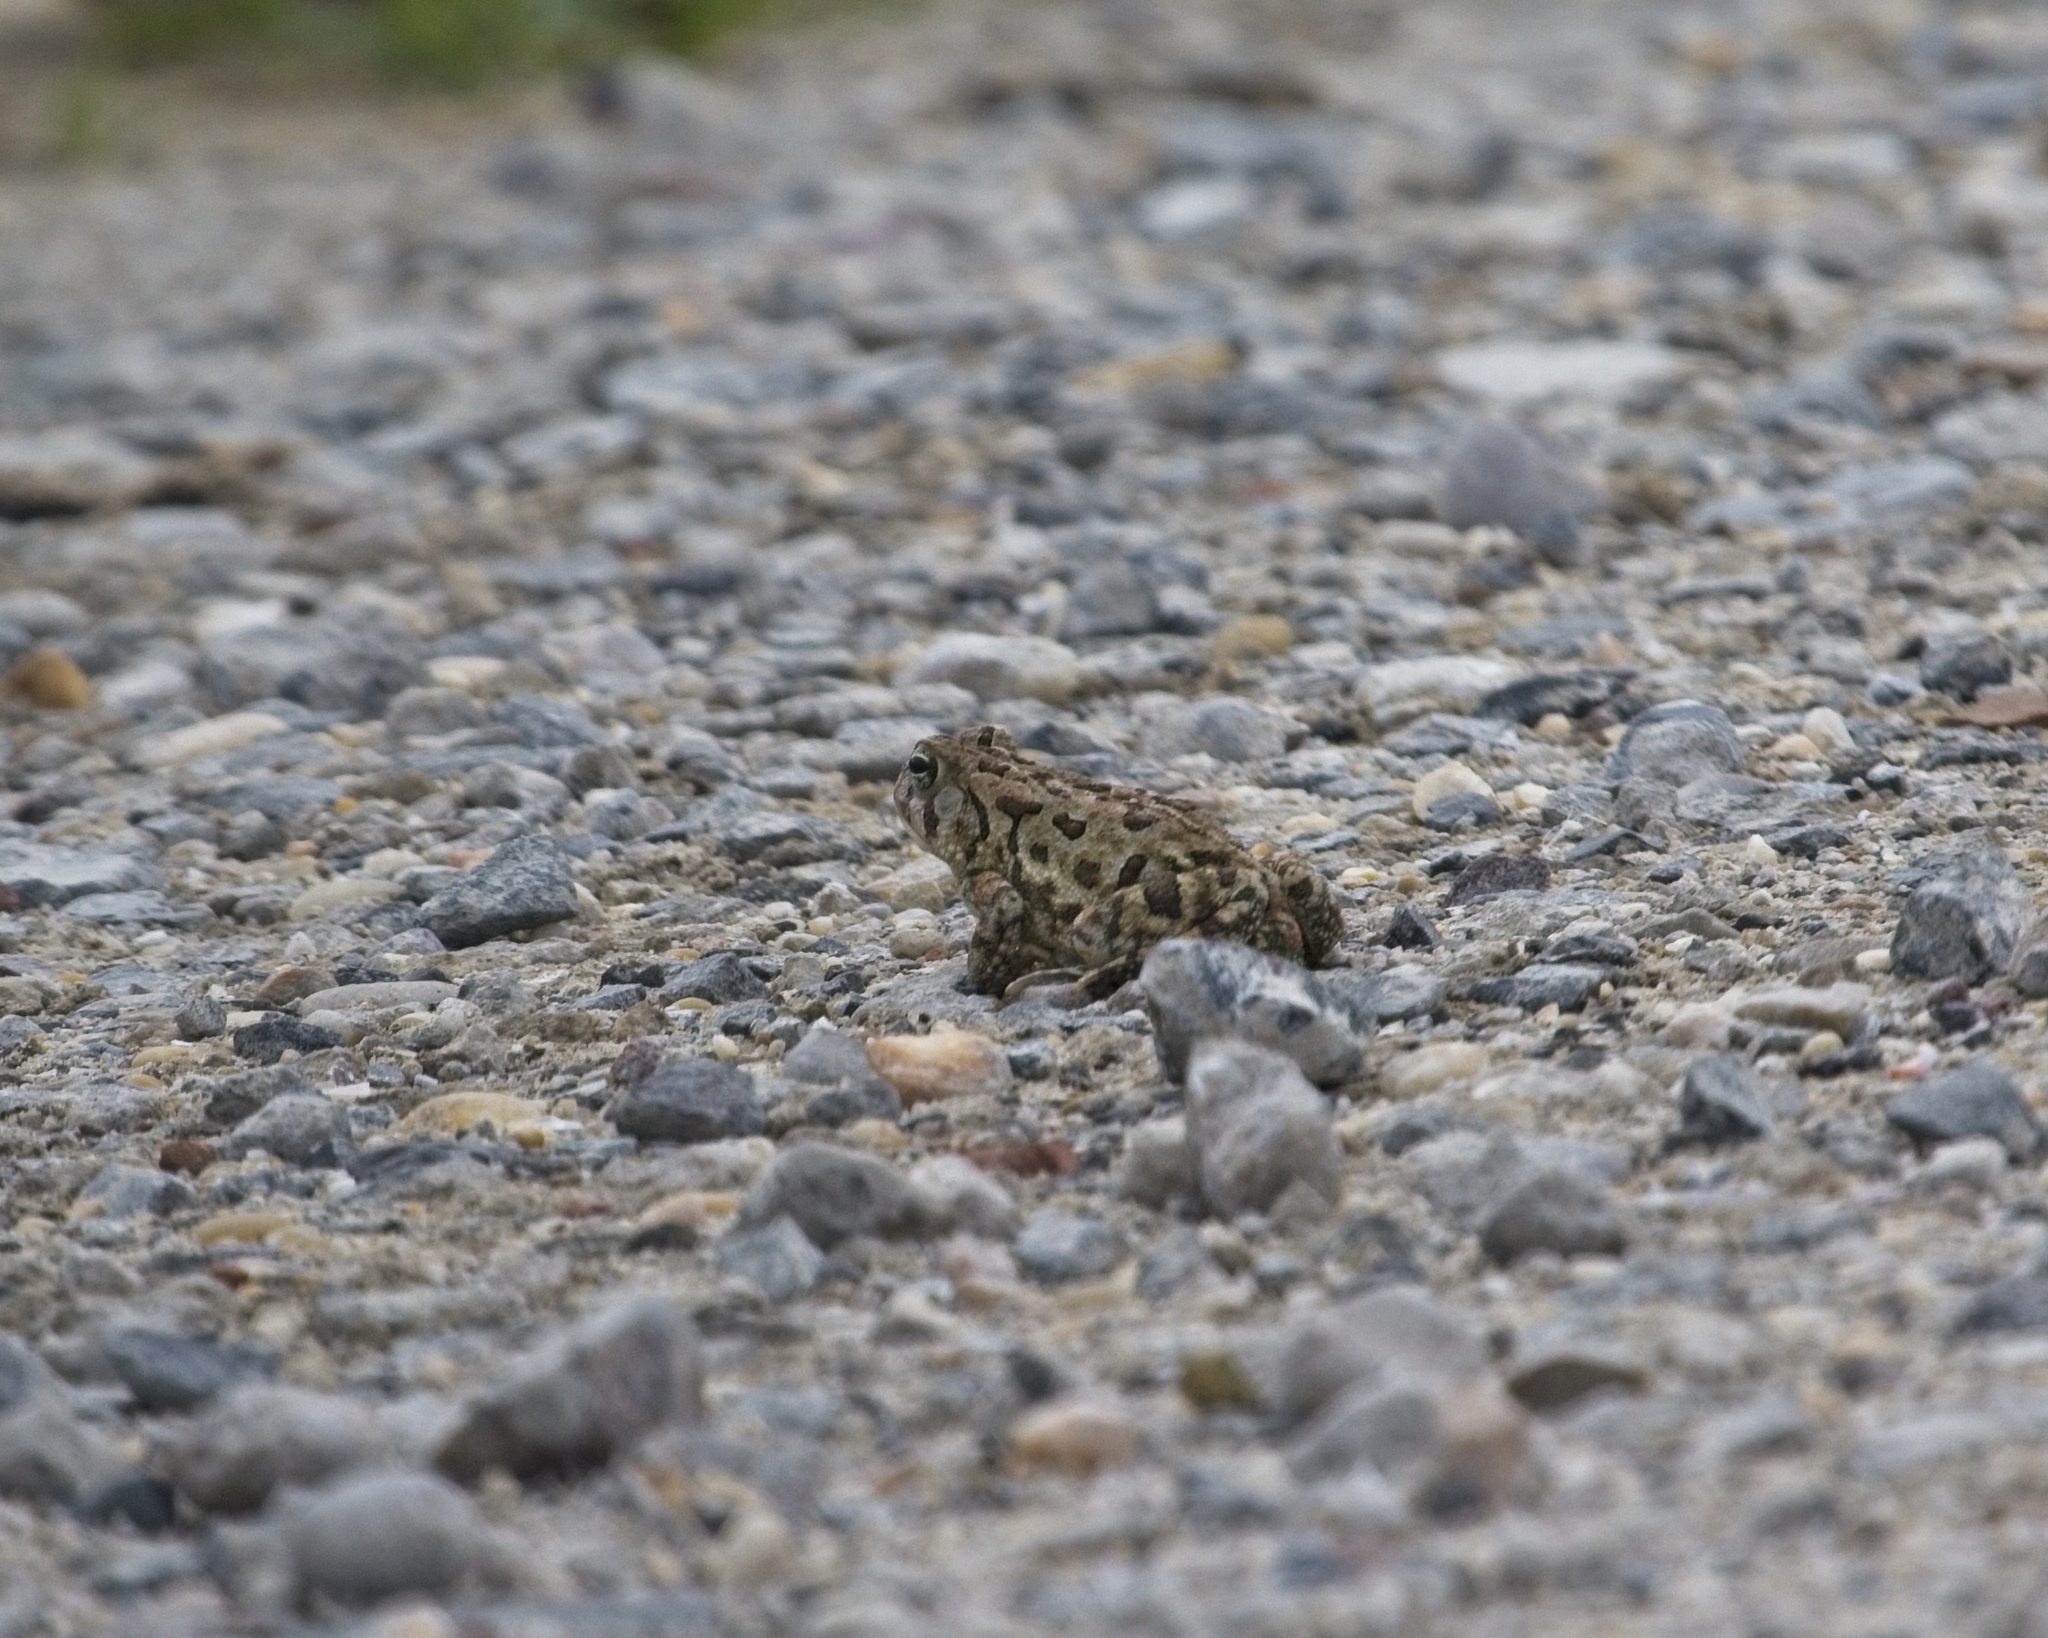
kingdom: Animalia
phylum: Chordata
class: Amphibia
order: Anura
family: Bufonidae
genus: Anaxyrus
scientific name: Anaxyrus fowleri
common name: Fowler's toad
